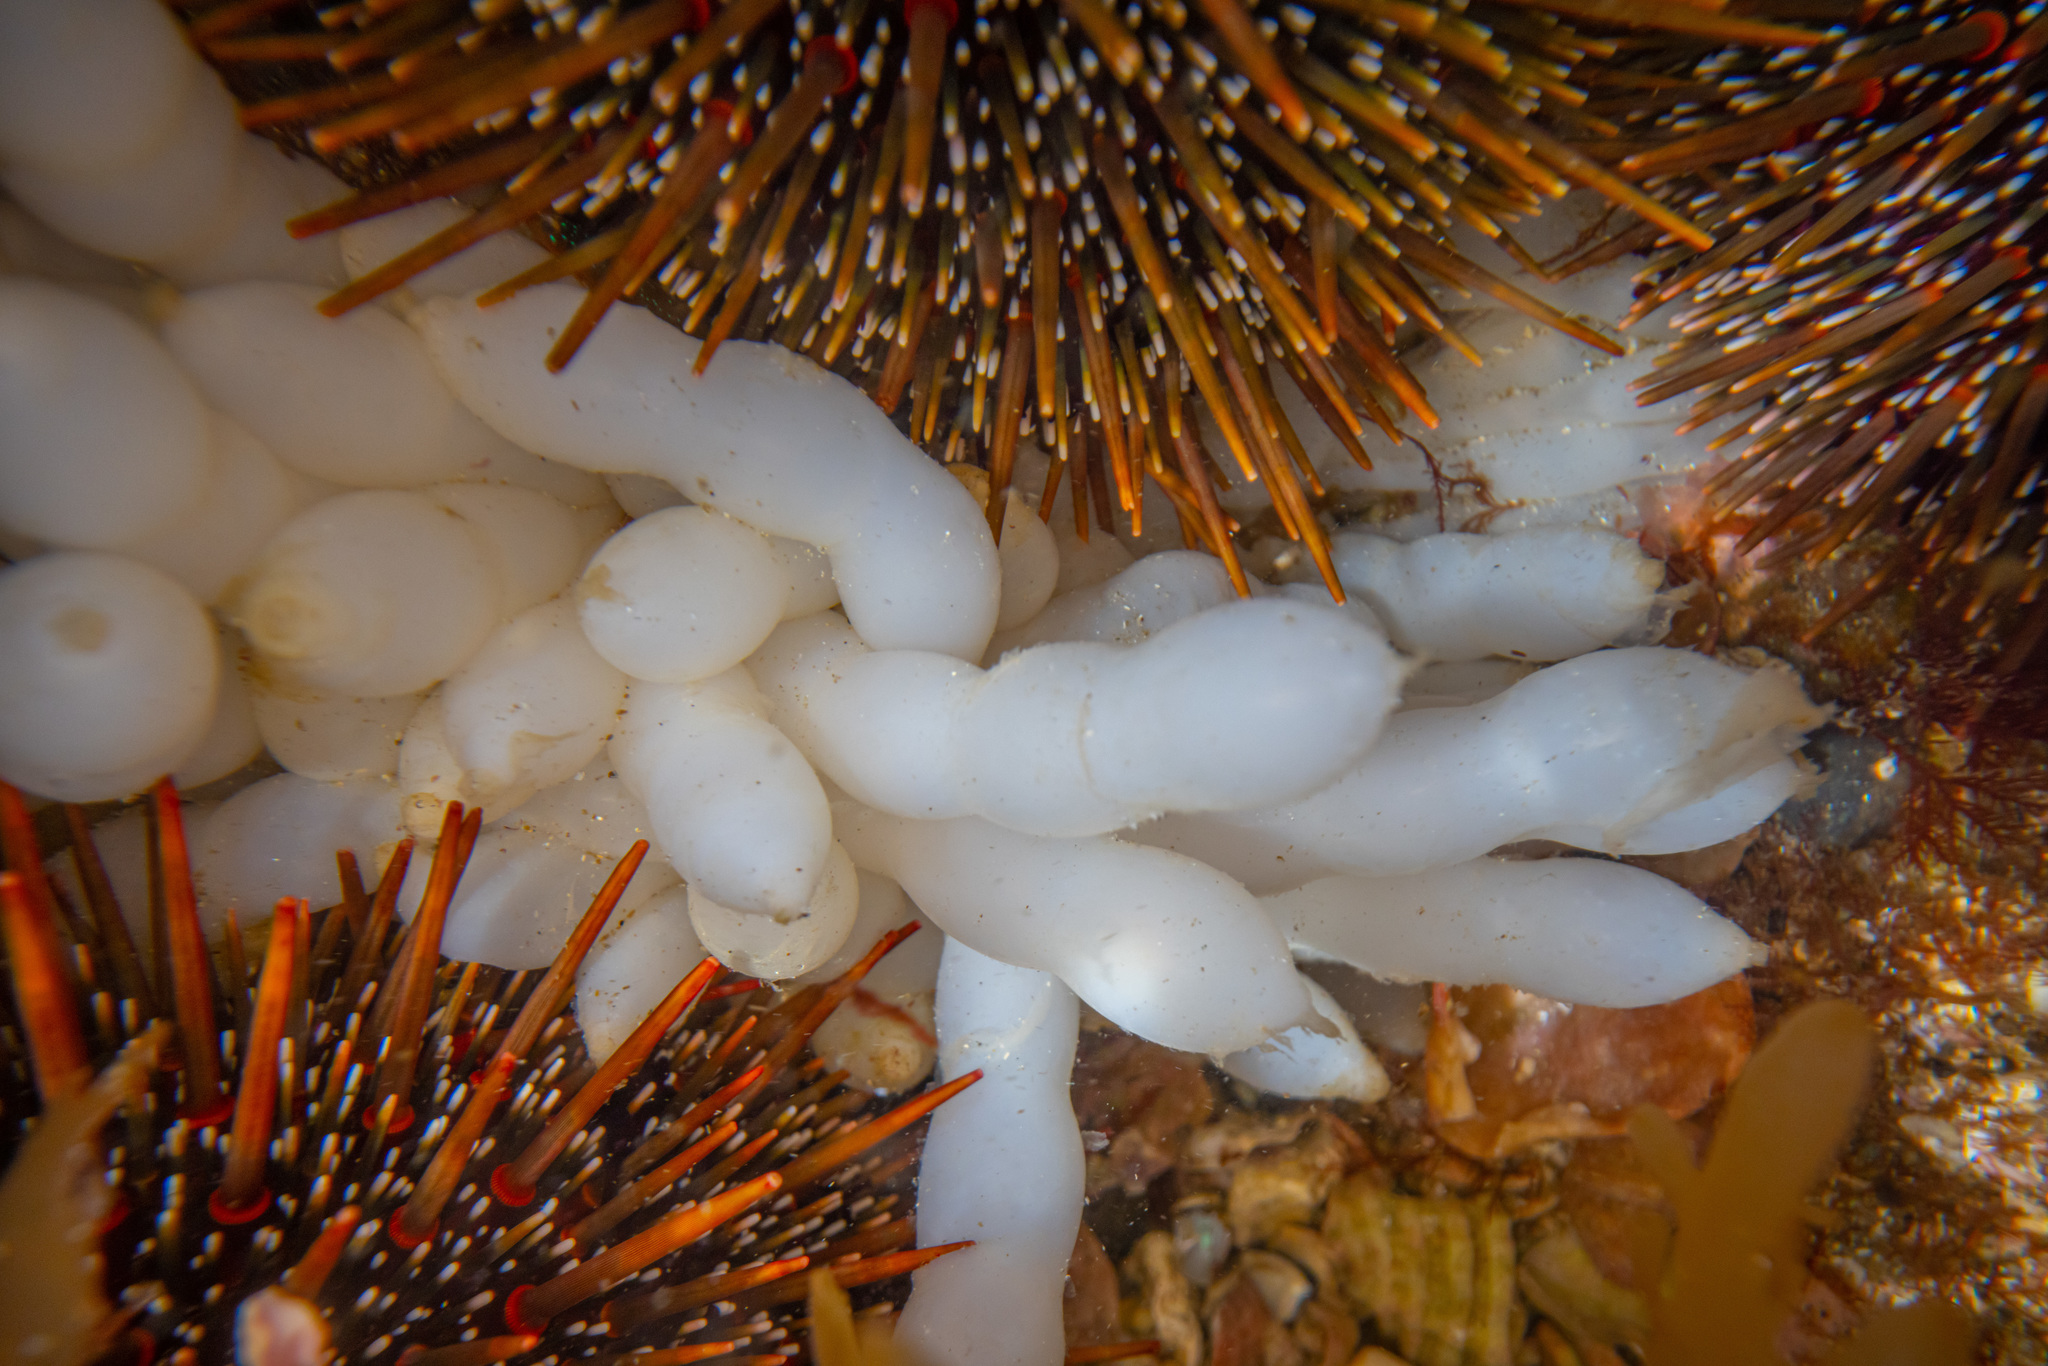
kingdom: Animalia
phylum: Mollusca
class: Cephalopoda
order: Myopsida
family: Loliginidae
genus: Sepioteuthis
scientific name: Sepioteuthis australis
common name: Southern reef squid
